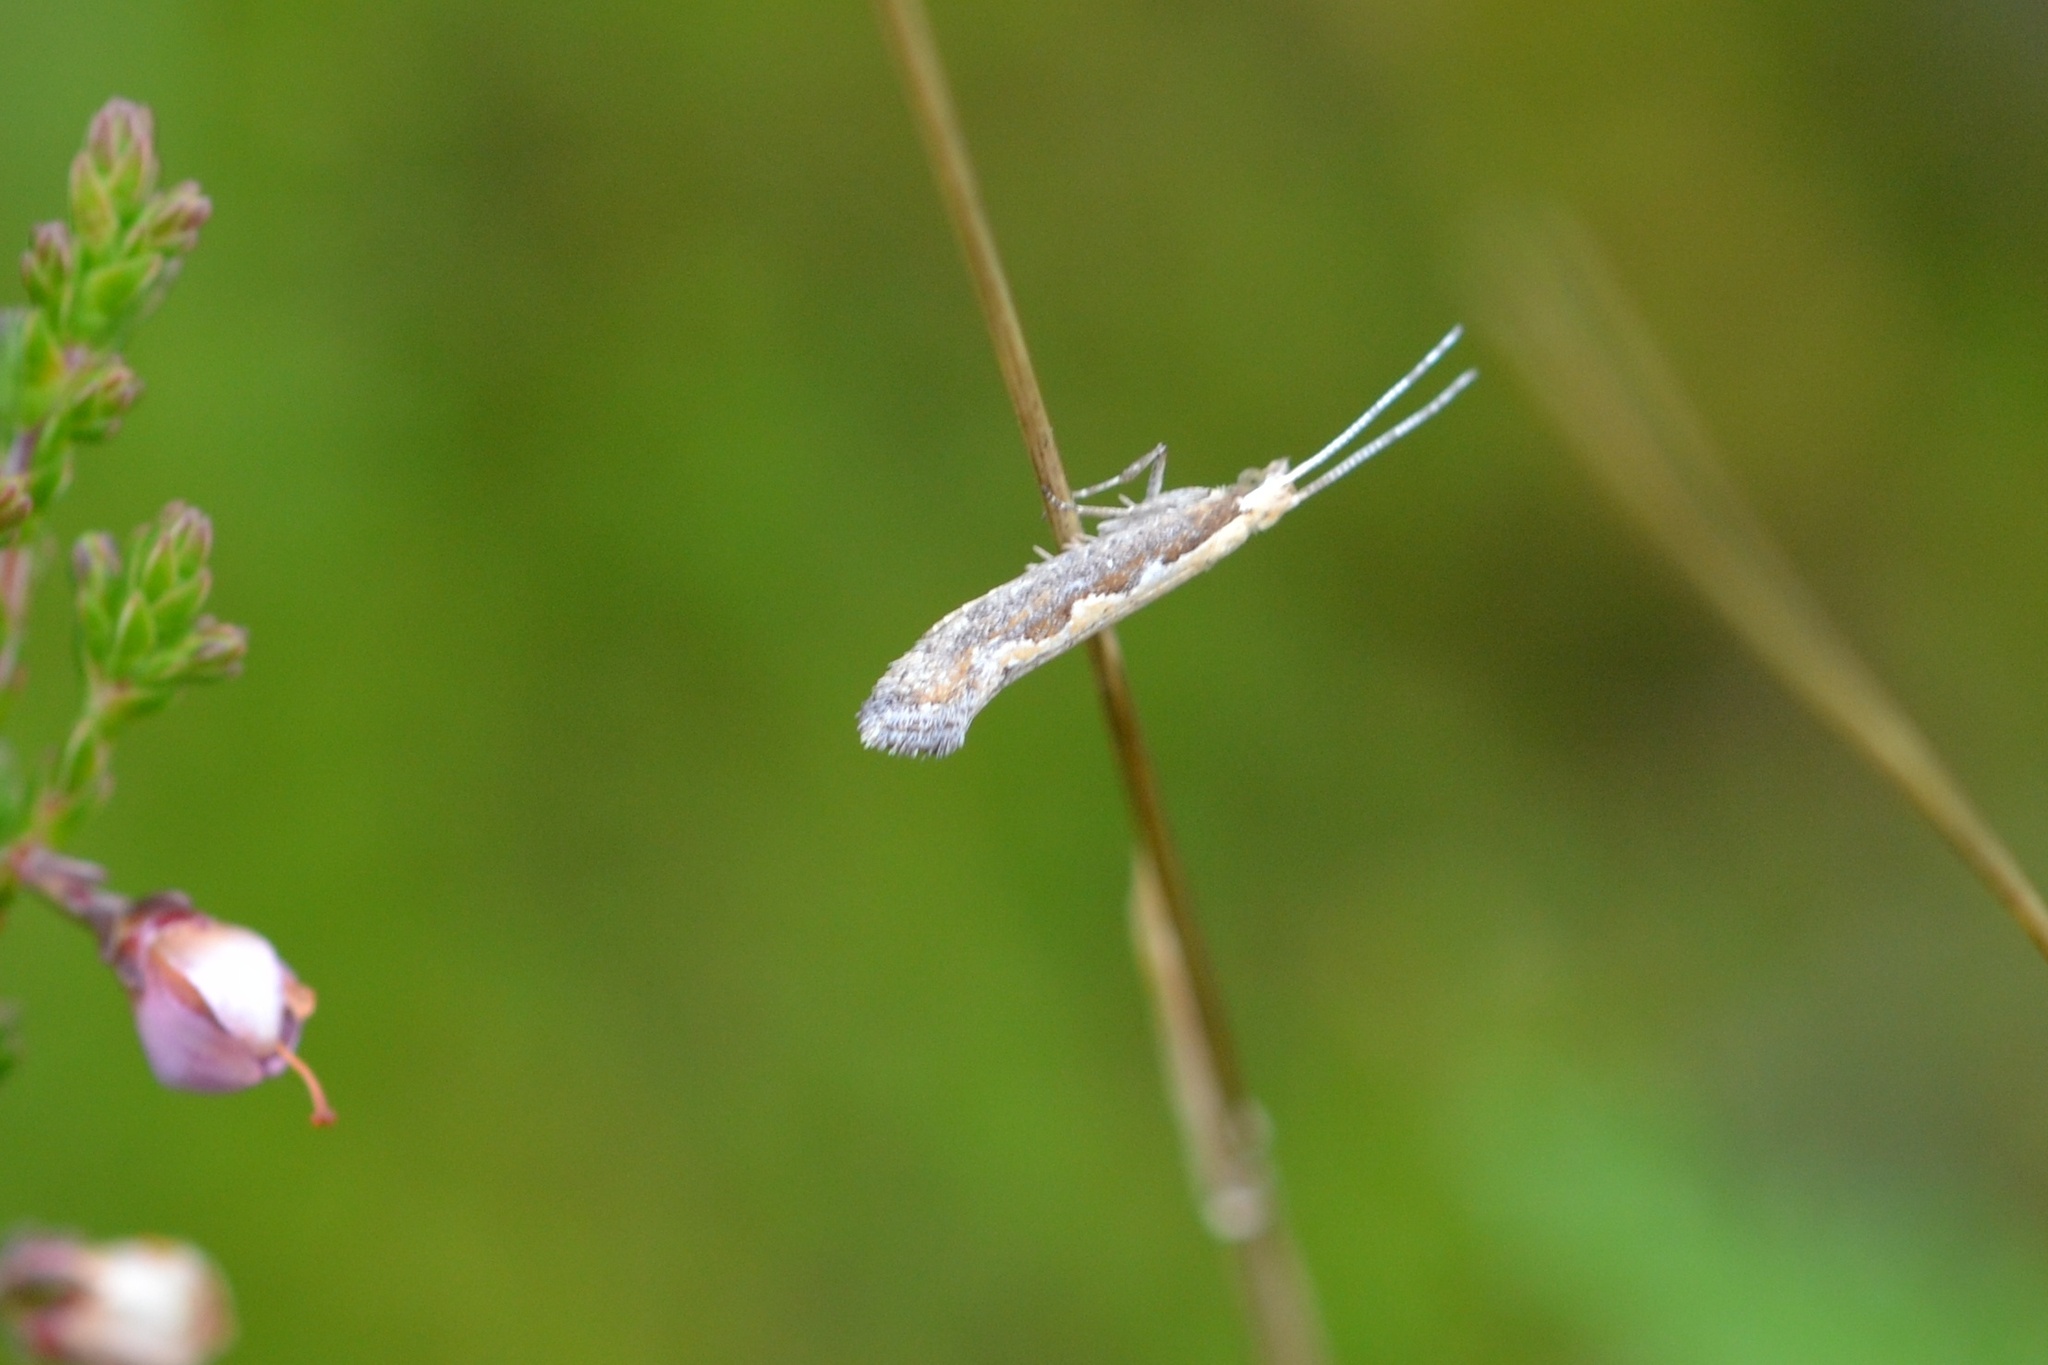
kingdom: Animalia
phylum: Arthropoda
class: Insecta
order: Lepidoptera
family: Plutellidae
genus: Plutella
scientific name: Plutella xylostella
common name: Diamond-back moth
